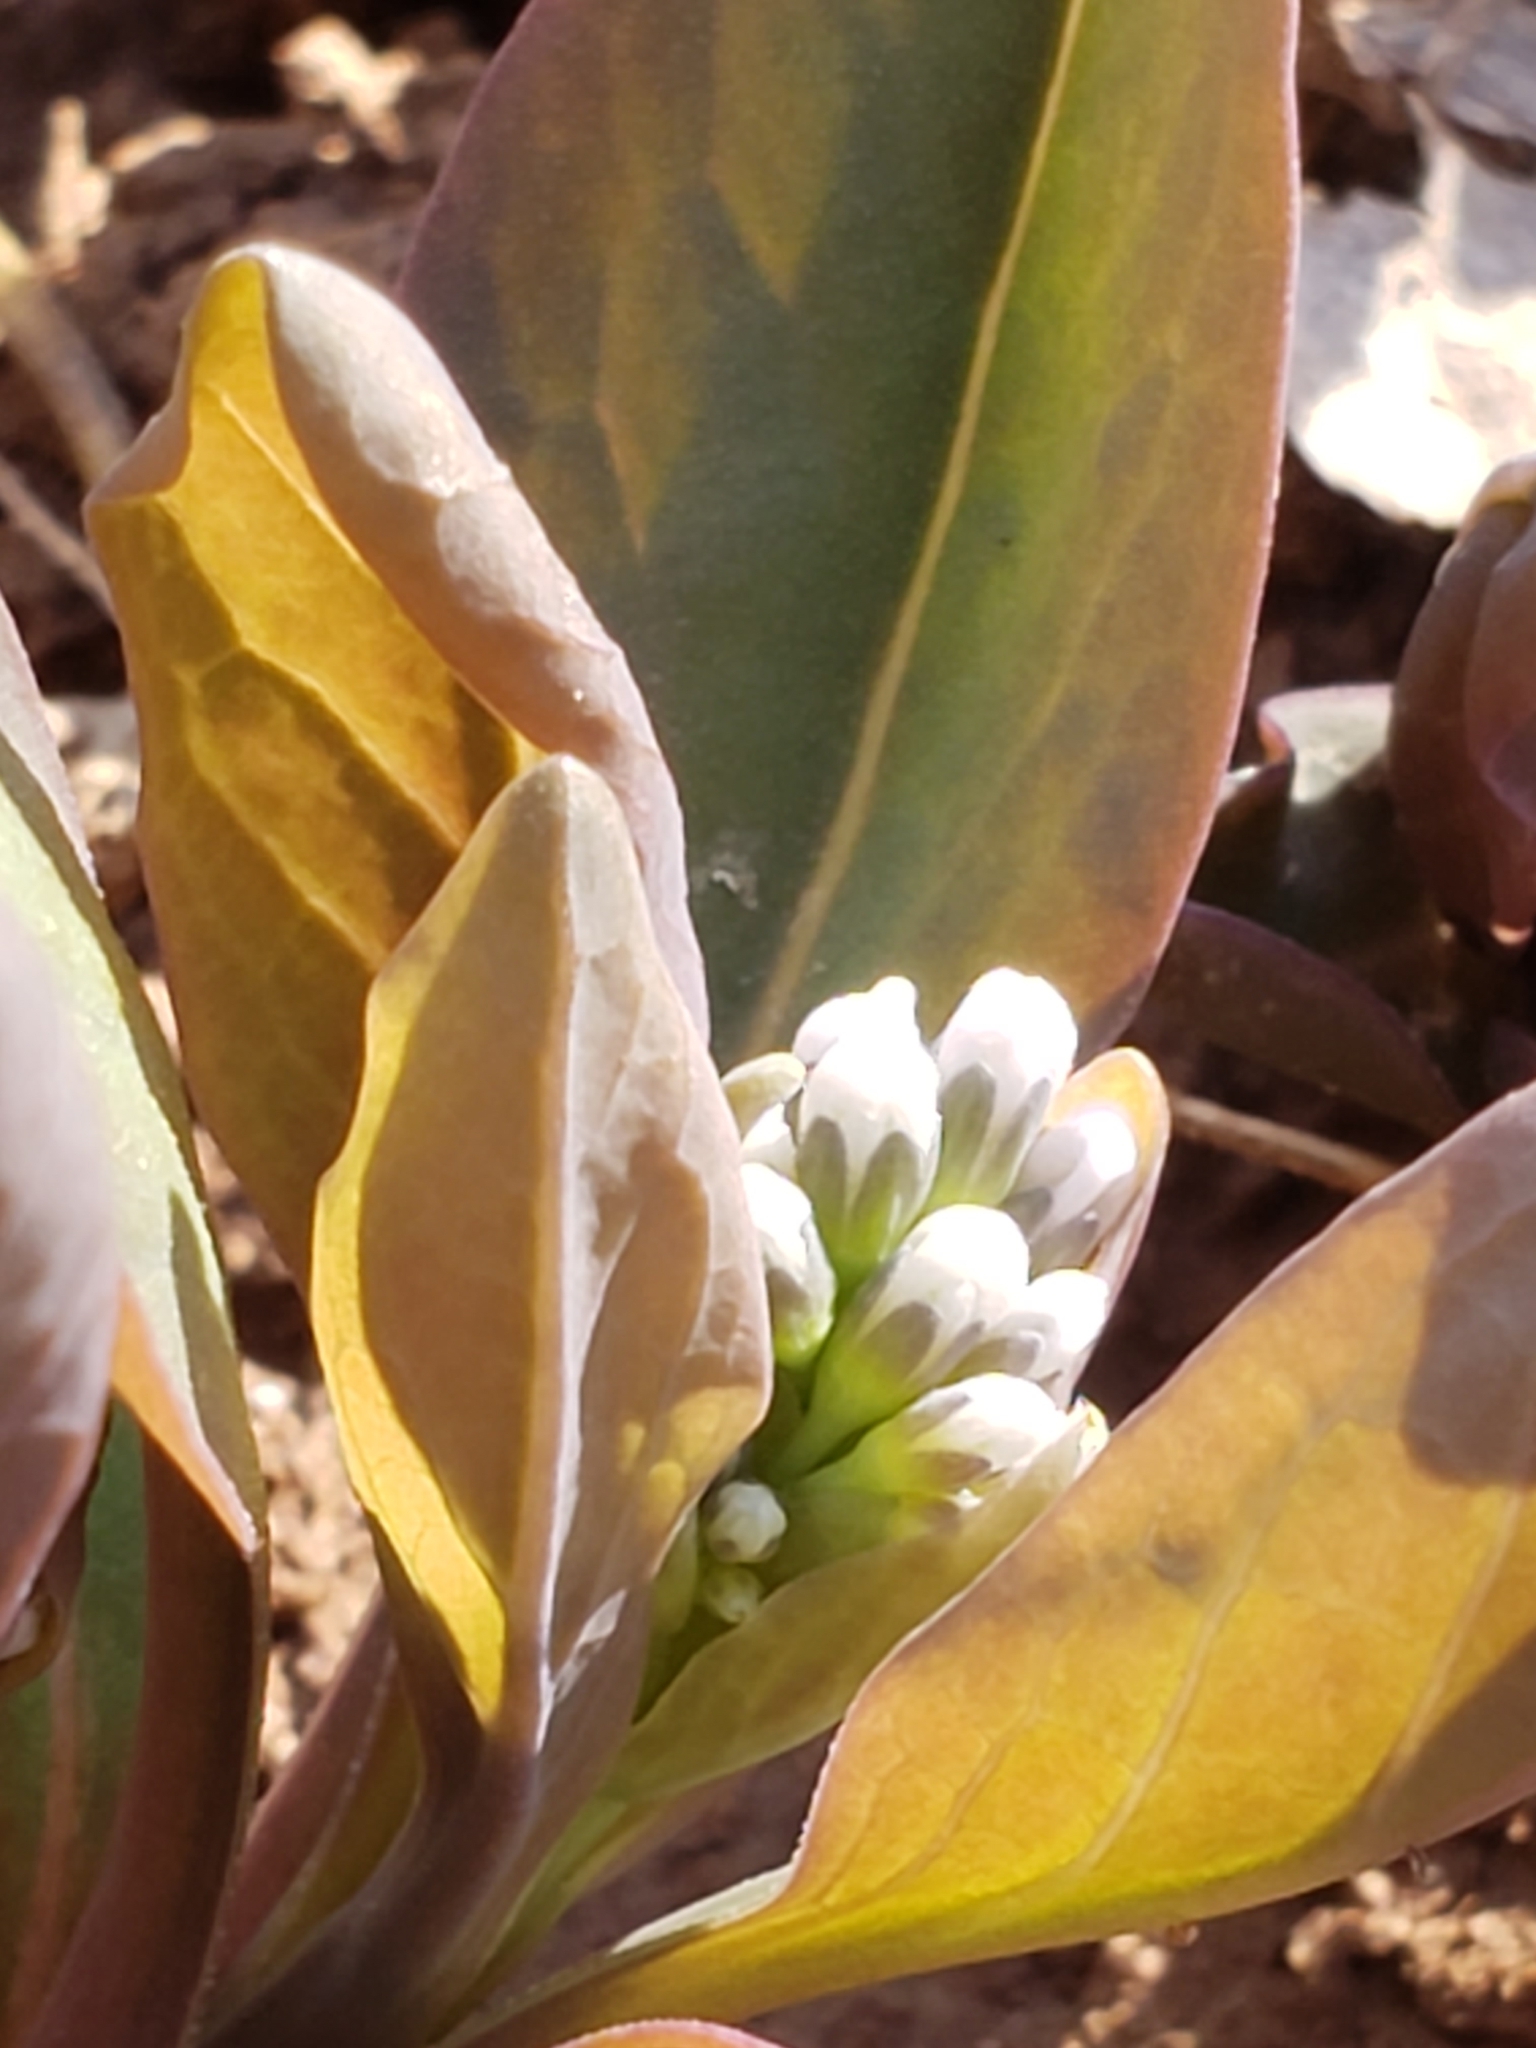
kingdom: Plantae
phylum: Tracheophyta
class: Magnoliopsida
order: Boraginales
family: Boraginaceae
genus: Mertensia
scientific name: Mertensia virginica
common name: Virginia bluebells
